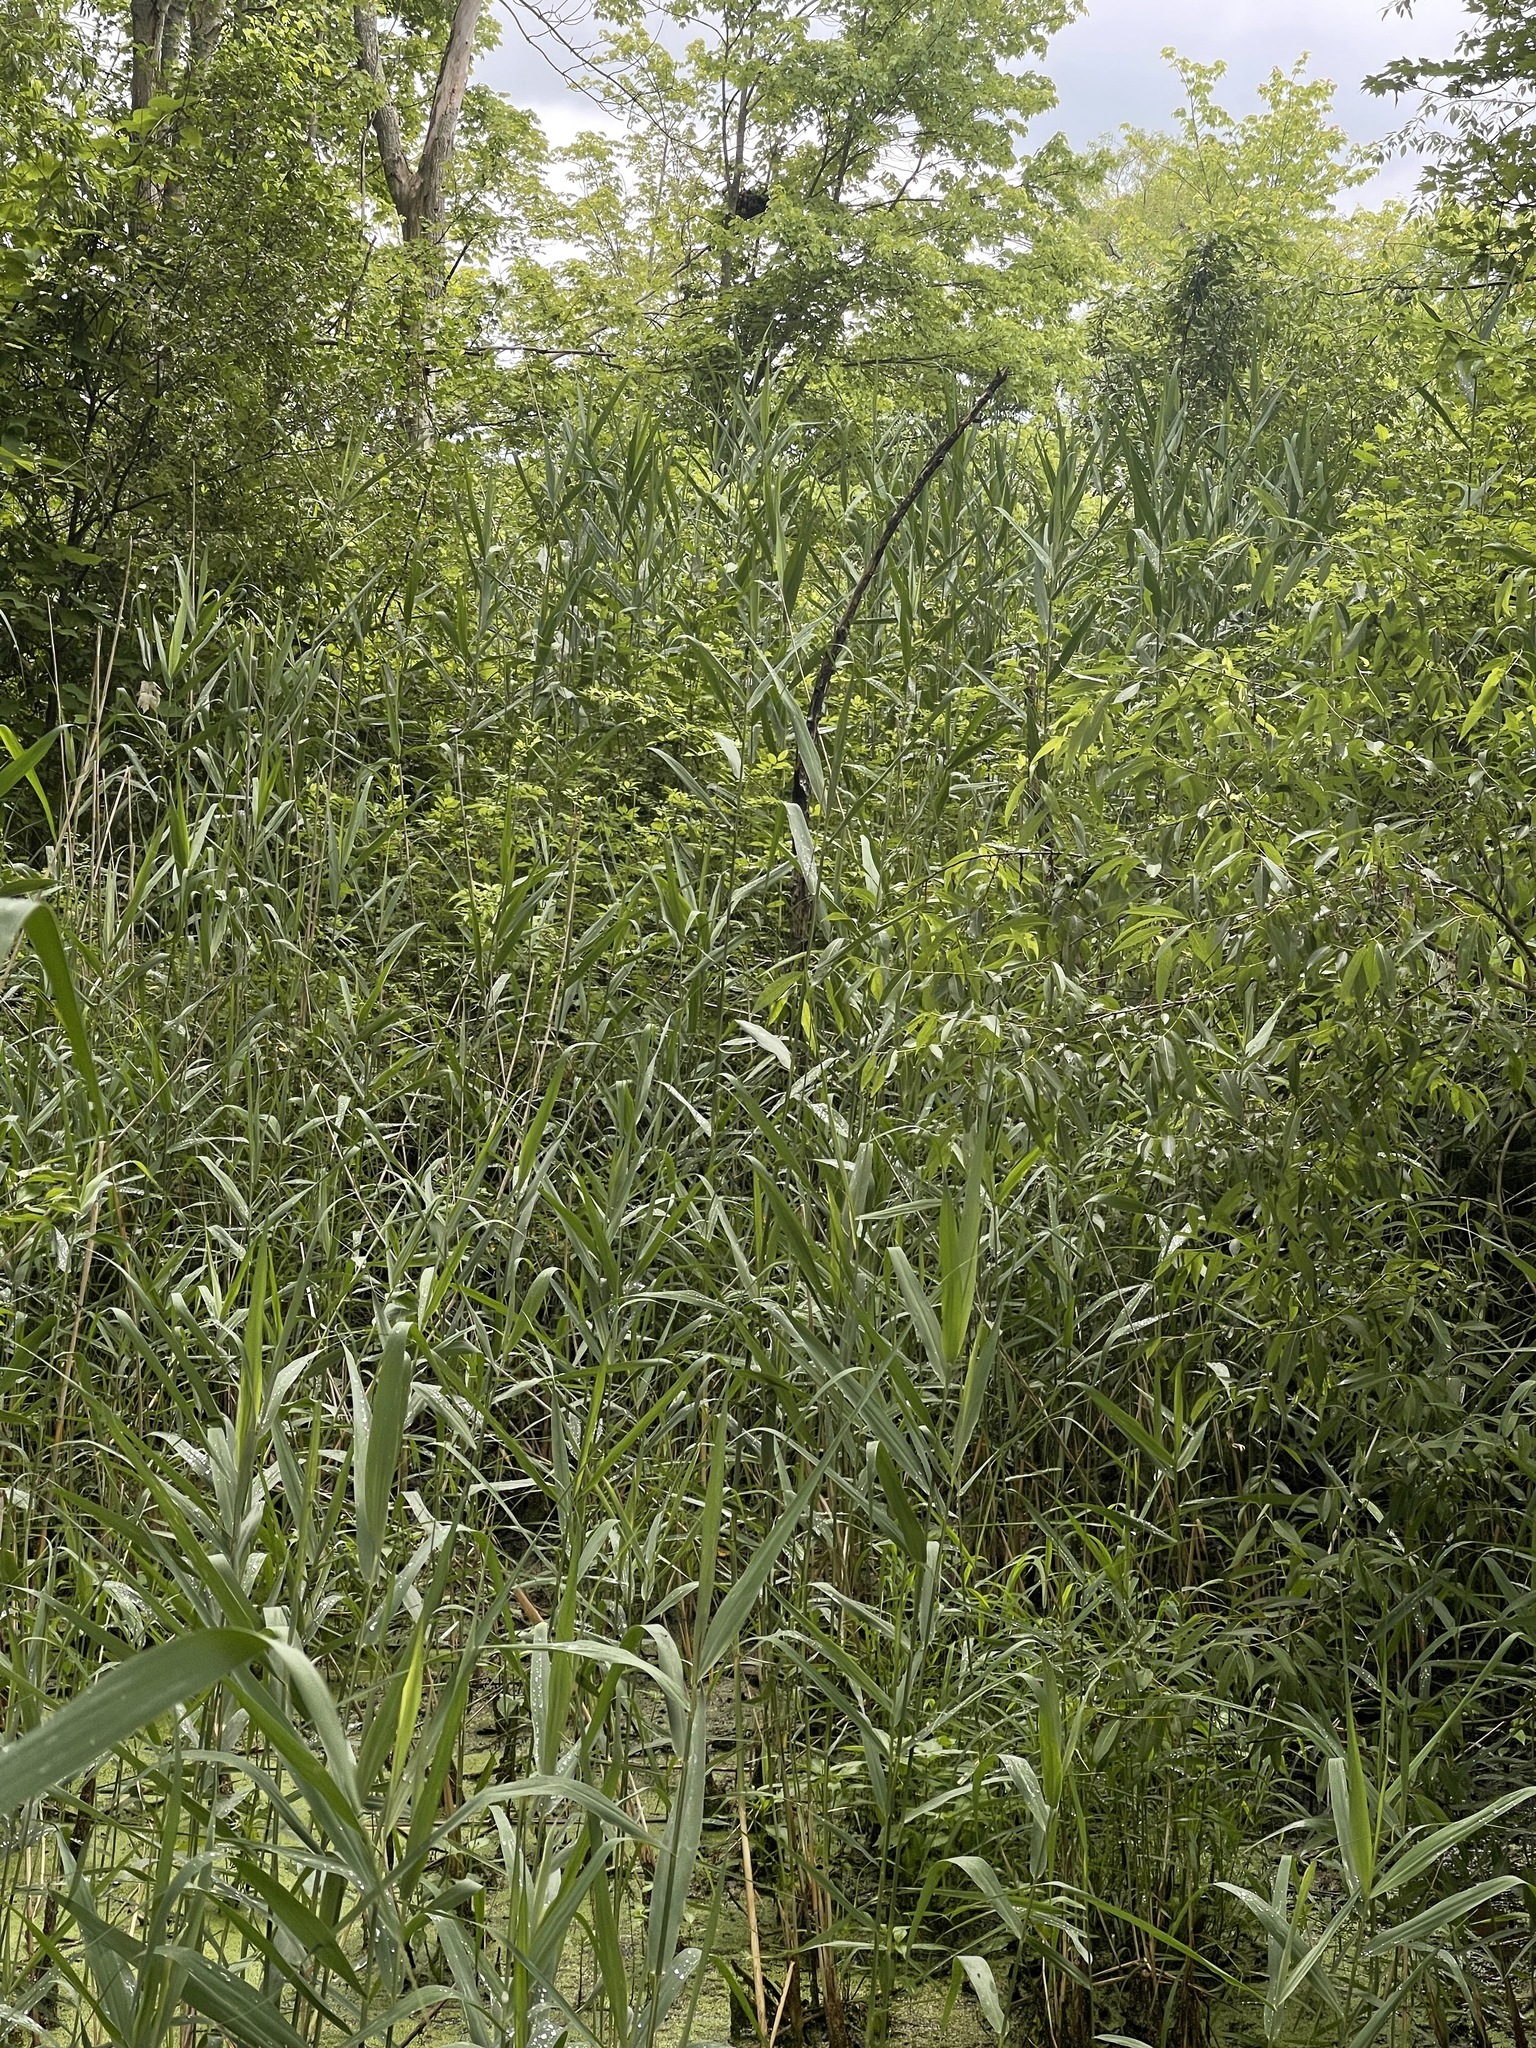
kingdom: Plantae
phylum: Tracheophyta
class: Liliopsida
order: Poales
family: Poaceae
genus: Phragmites
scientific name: Phragmites australis
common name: Common reed
